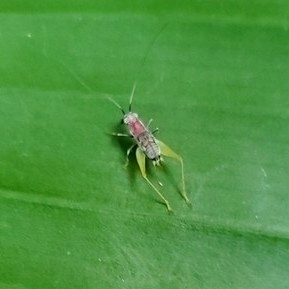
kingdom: Animalia
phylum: Arthropoda
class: Insecta
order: Orthoptera
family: Trigonidiidae
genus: Phyllopalpus
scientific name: Phyllopalpus pulchellus
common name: Handsome trig
